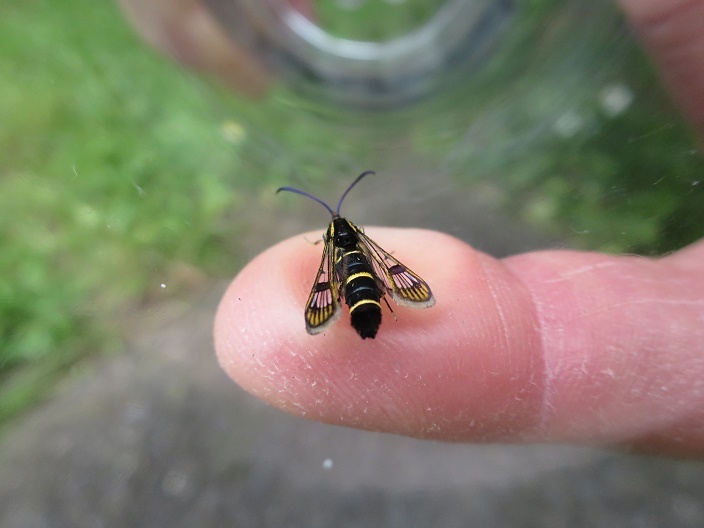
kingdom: Animalia
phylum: Arthropoda
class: Insecta
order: Lepidoptera
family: Sesiidae
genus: Synanthedon
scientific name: Synanthedon tipuliformis
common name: Currant clearwing
